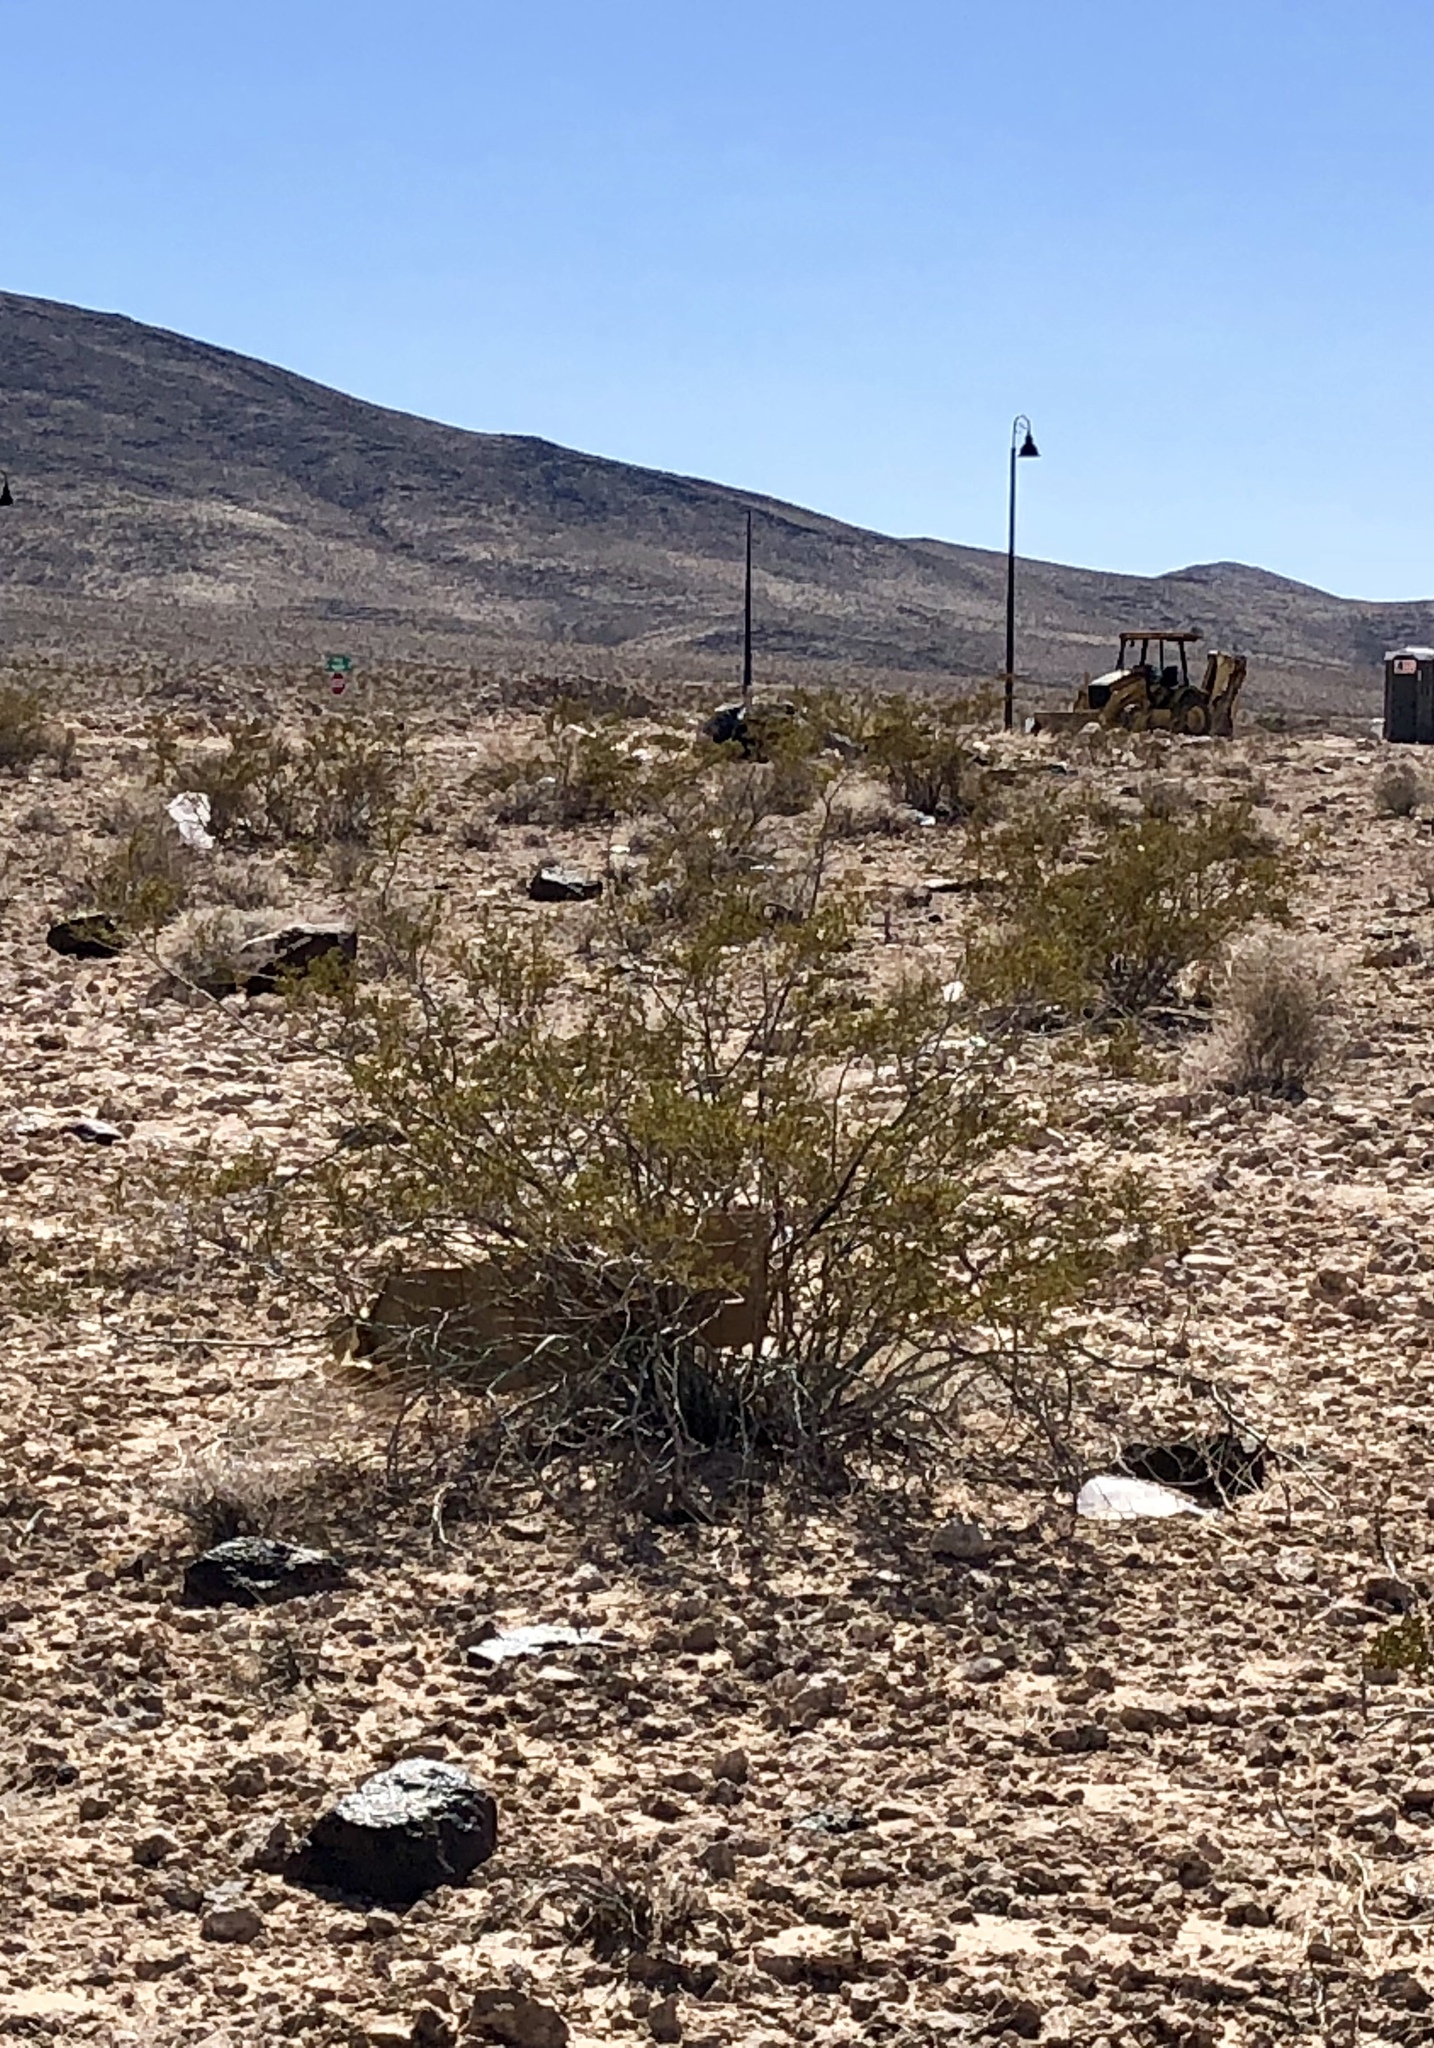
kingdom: Plantae
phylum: Tracheophyta
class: Magnoliopsida
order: Zygophyllales
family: Zygophyllaceae
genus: Larrea
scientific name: Larrea tridentata
